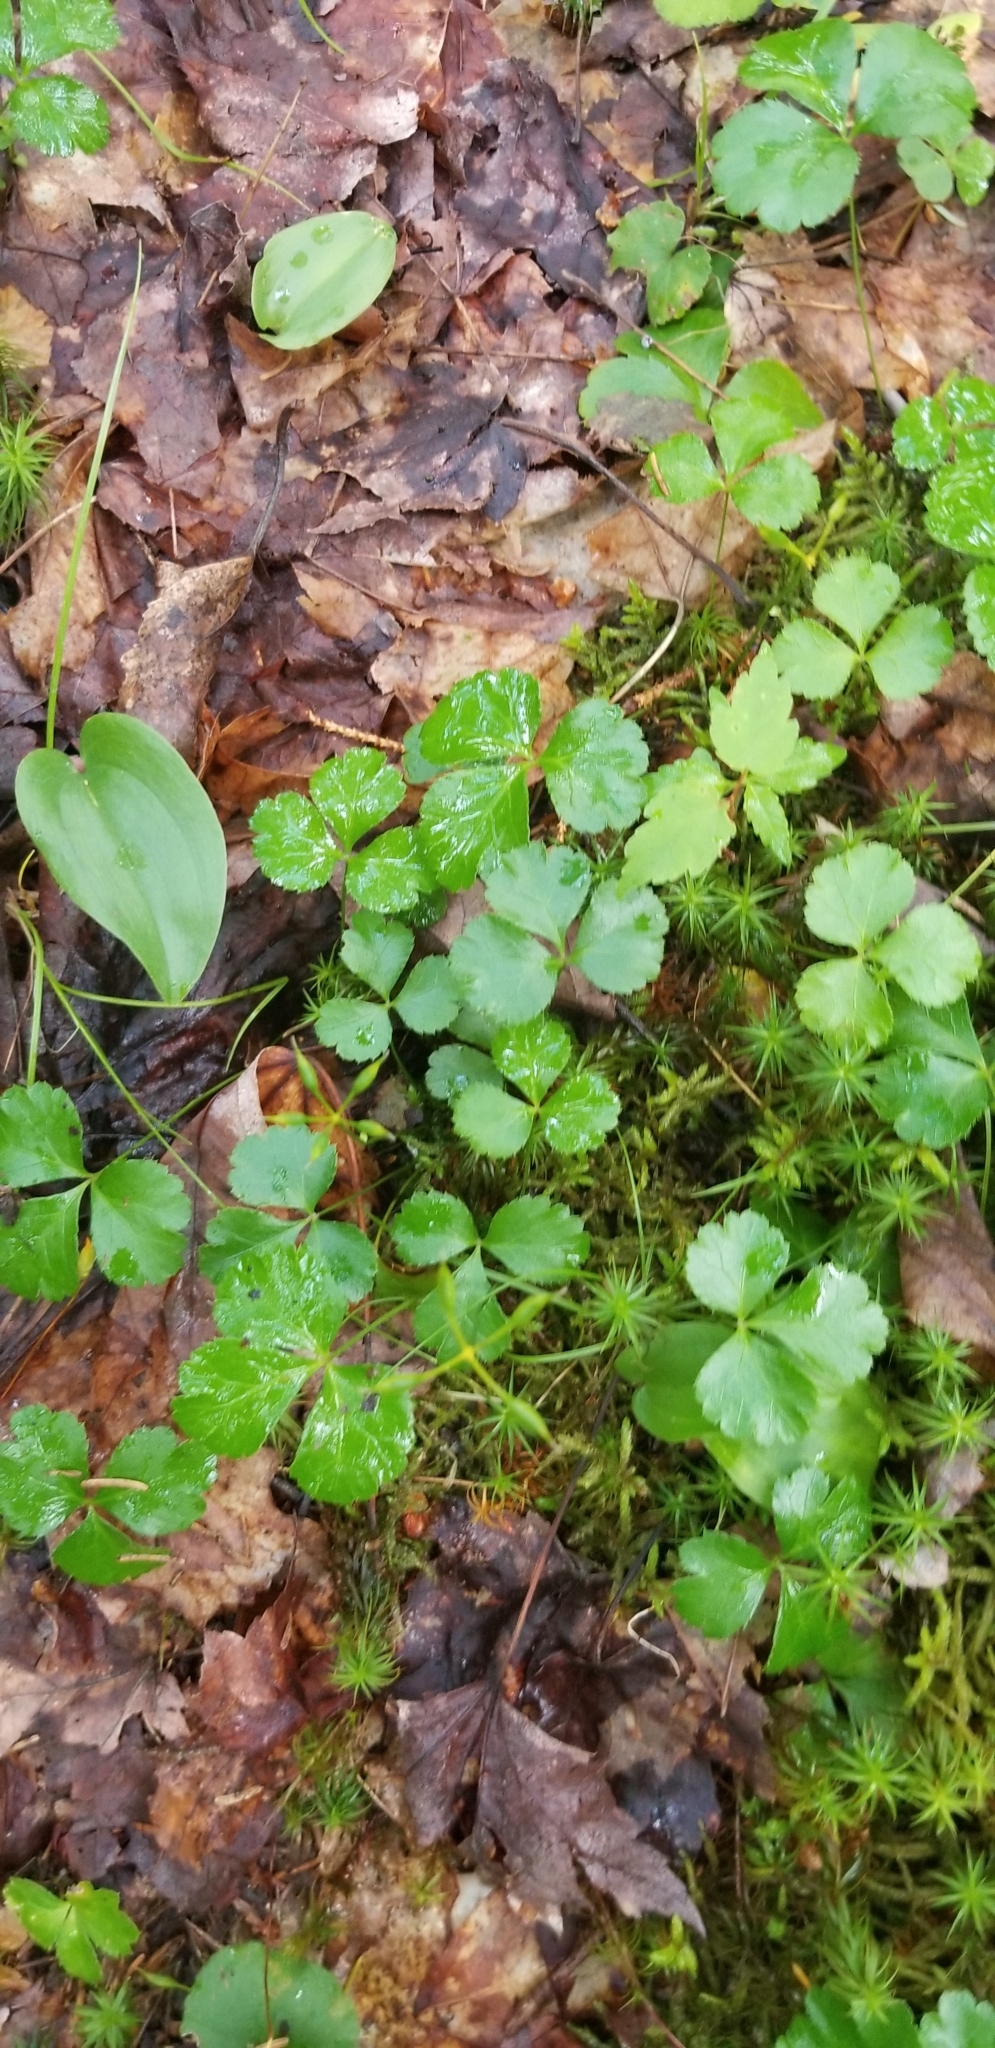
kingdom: Plantae
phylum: Tracheophyta
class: Magnoliopsida
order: Ranunculales
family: Ranunculaceae
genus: Coptis
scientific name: Coptis trifolia
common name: Canker-root
